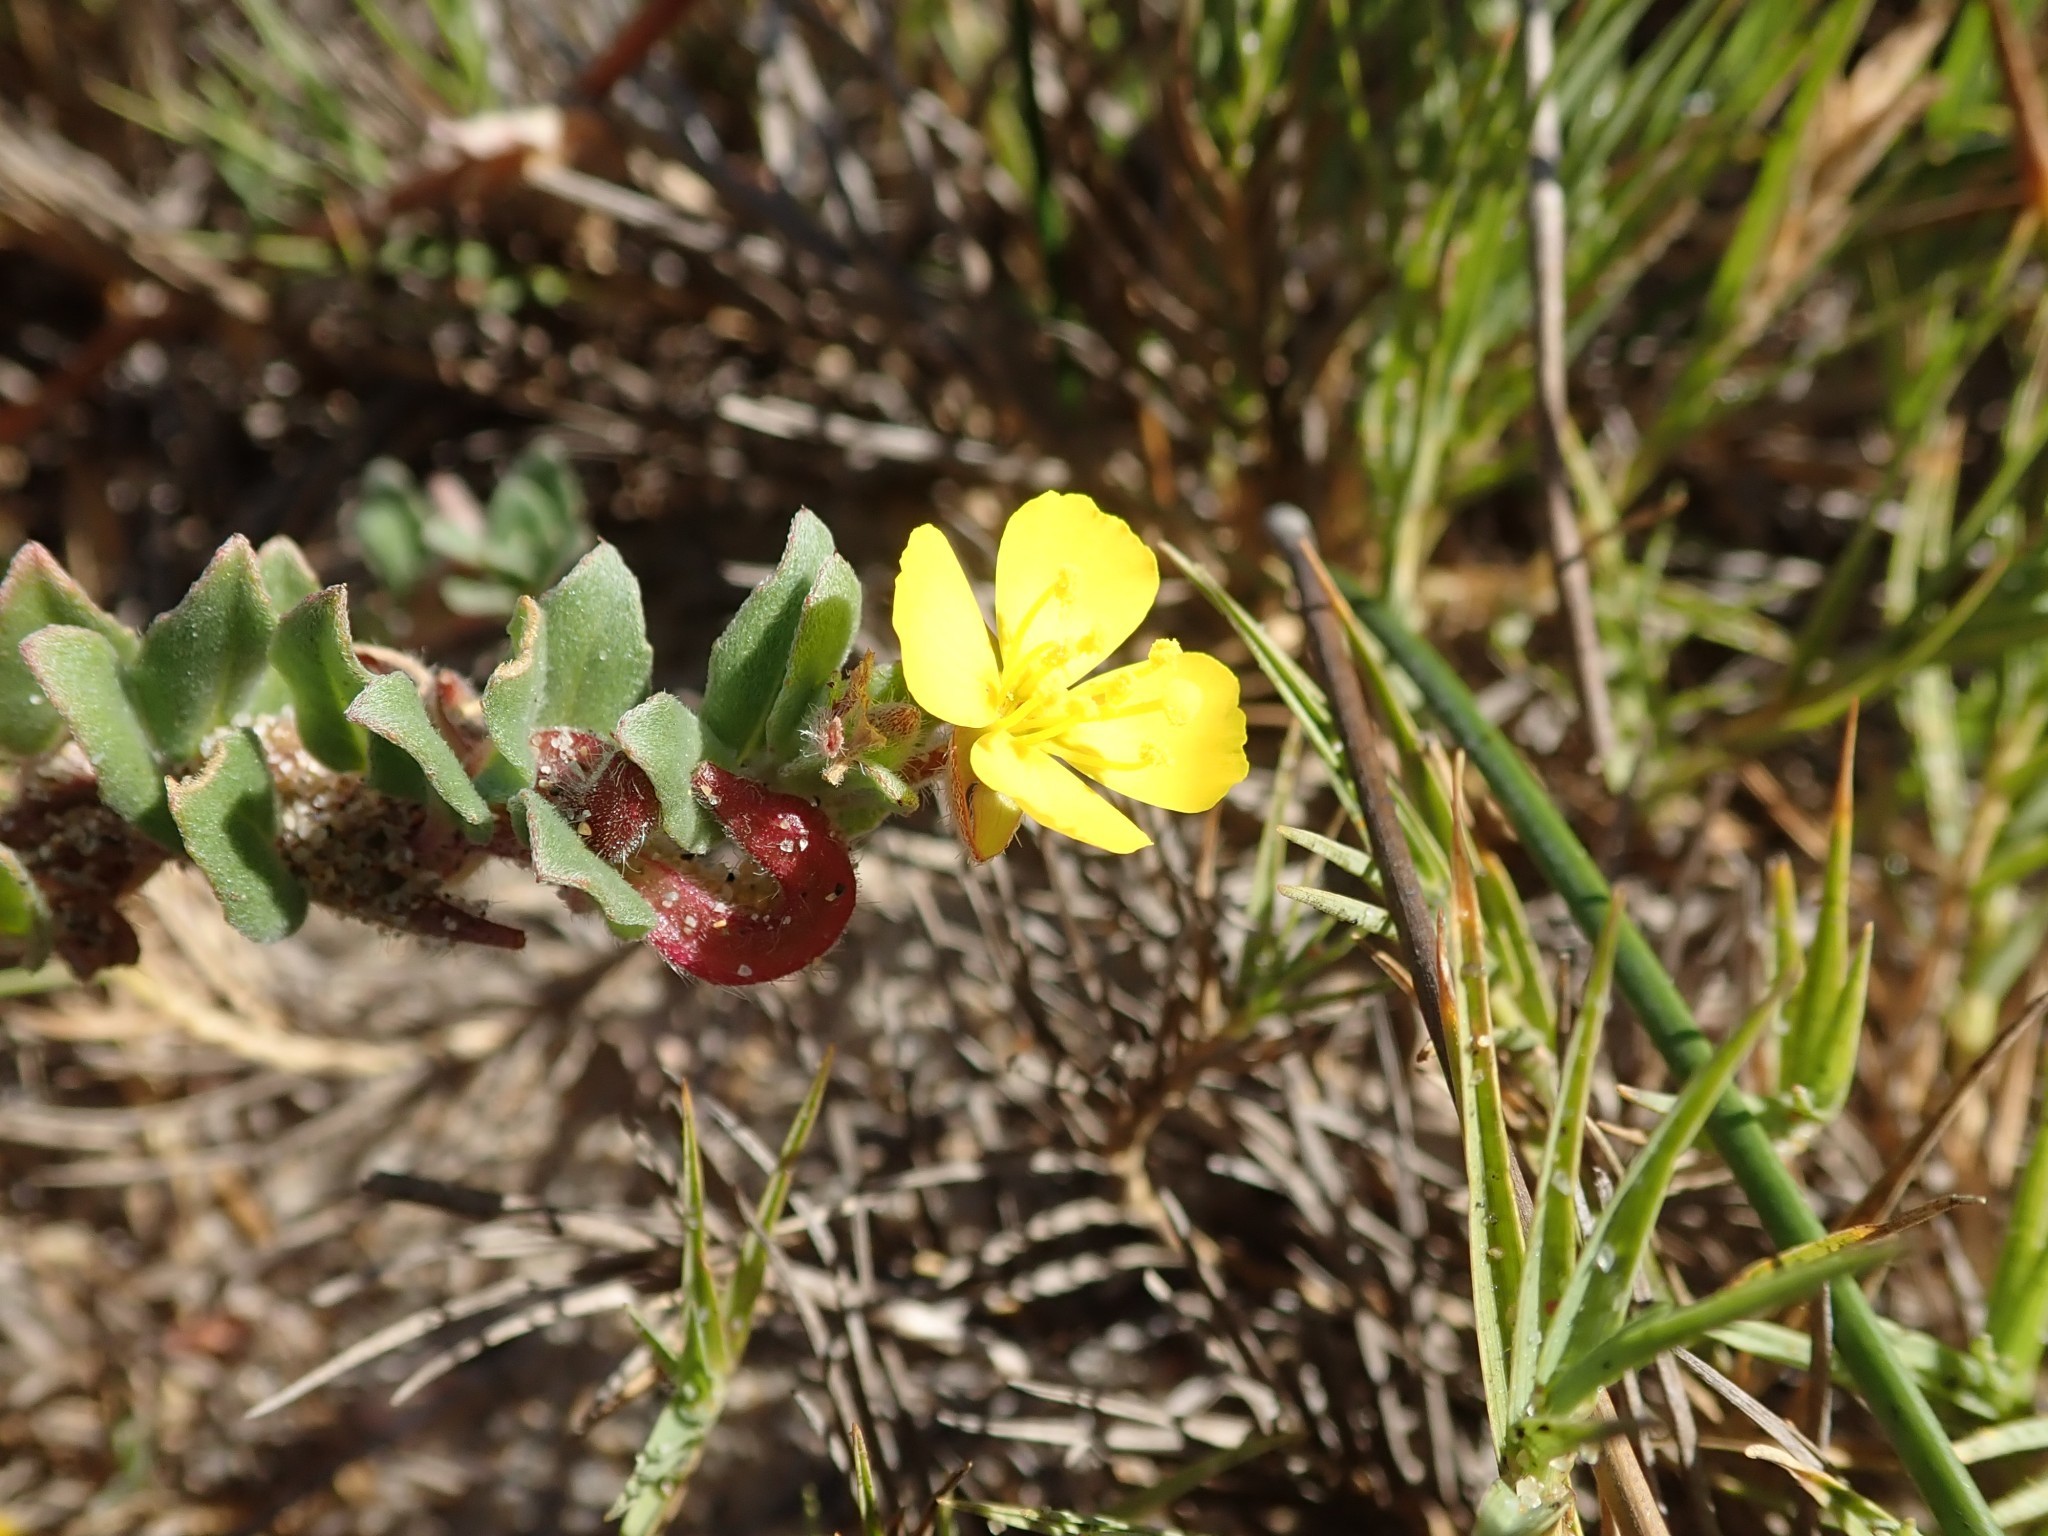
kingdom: Plantae
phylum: Tracheophyta
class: Magnoliopsida
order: Myrtales
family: Onagraceae
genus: Camissoniopsis
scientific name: Camissoniopsis cheiranthifolia
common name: Beach suncup
